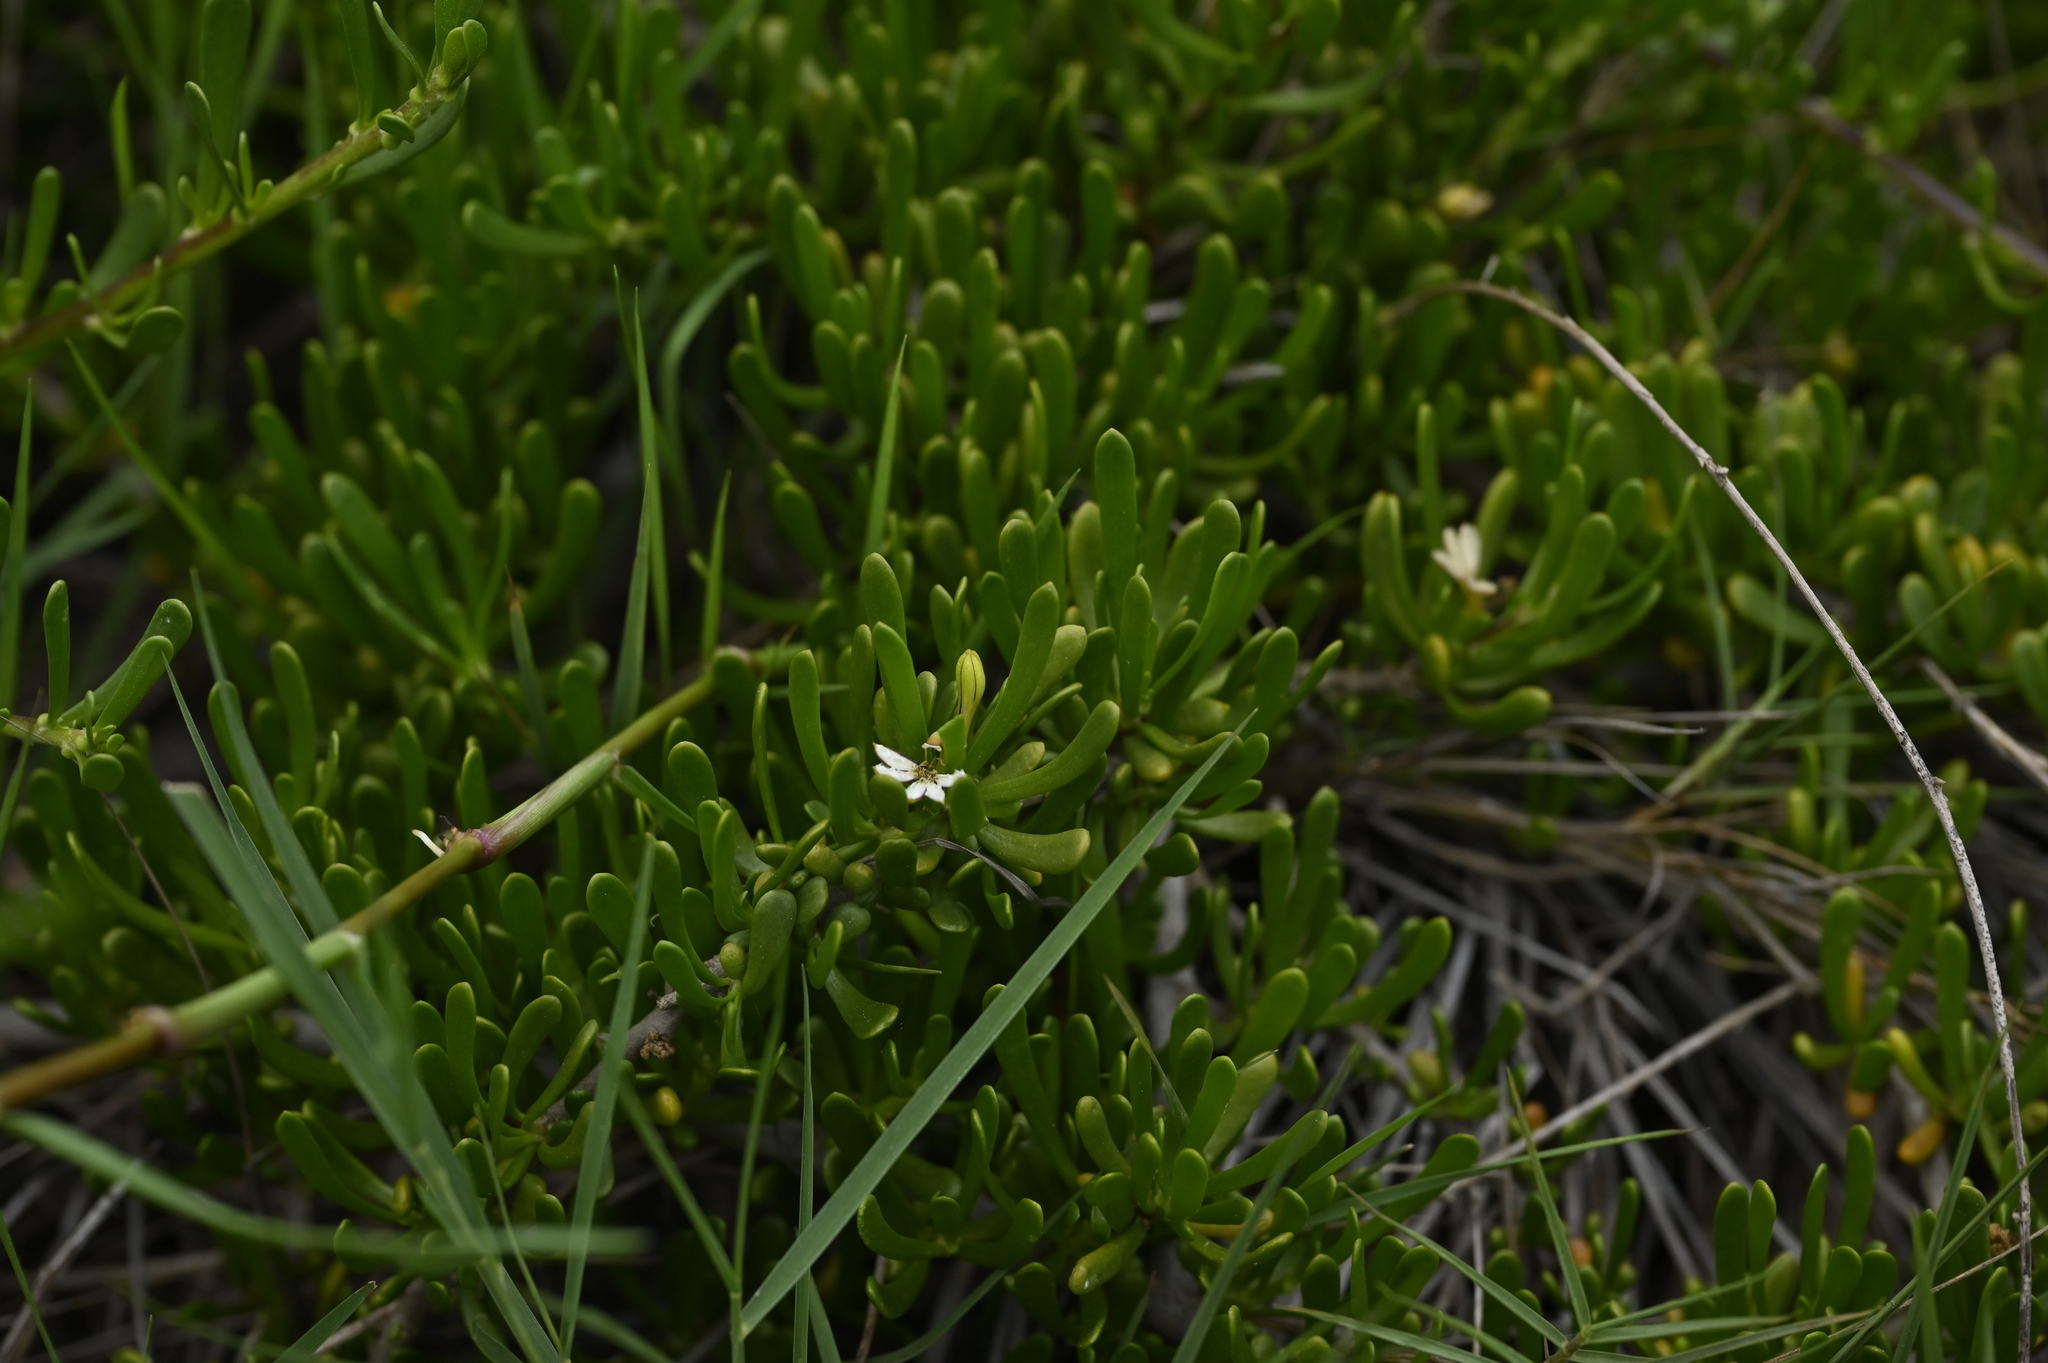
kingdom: Plantae
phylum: Tracheophyta
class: Magnoliopsida
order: Asterales
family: Goodeniaceae
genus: Scaevola
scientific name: Scaevola hainanensis
